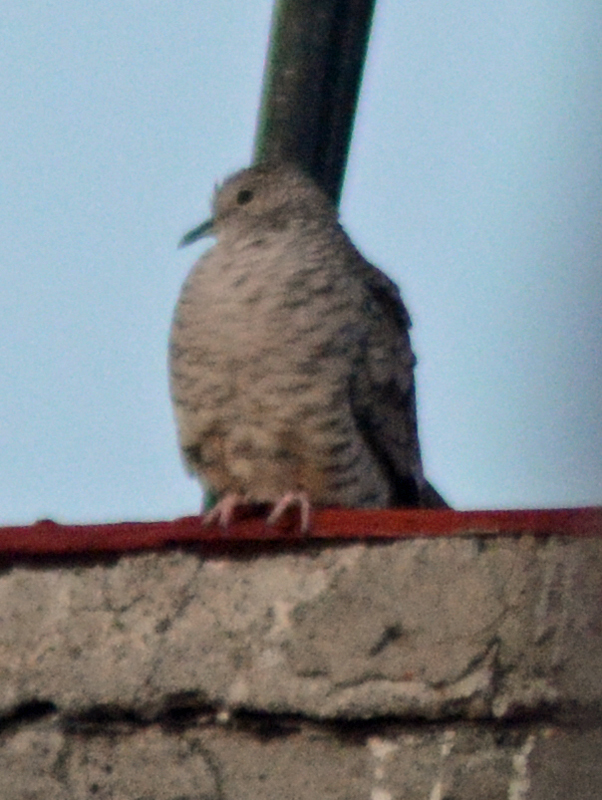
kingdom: Animalia
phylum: Chordata
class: Aves
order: Columbiformes
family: Columbidae
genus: Columbina
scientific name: Columbina inca
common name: Inca dove
